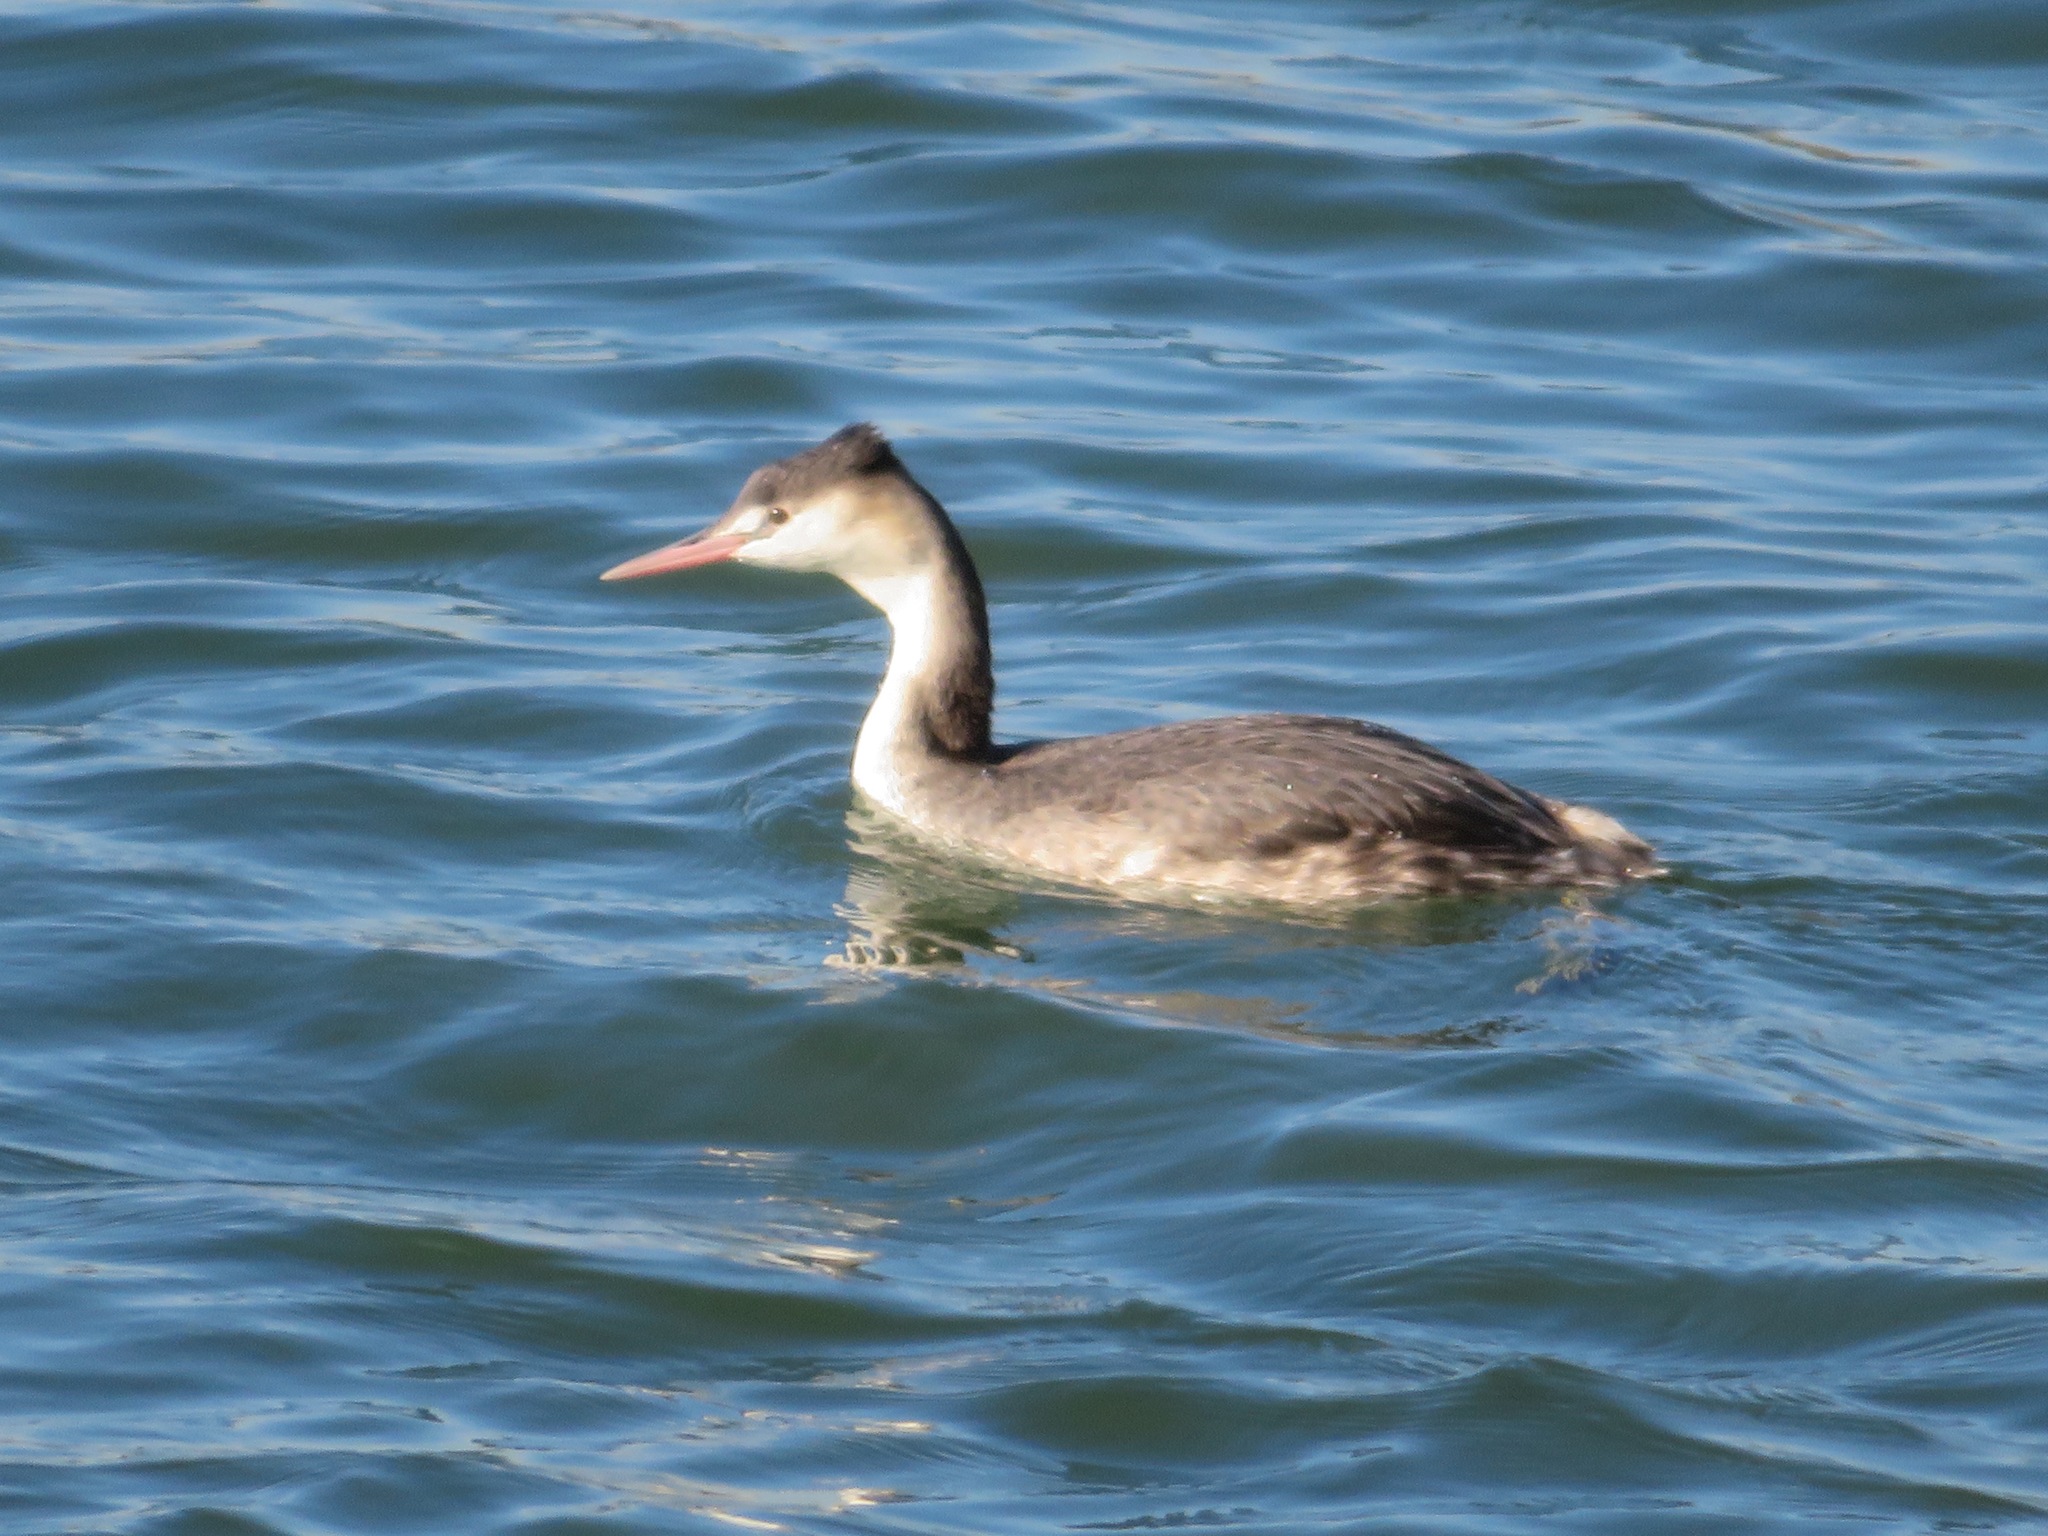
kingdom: Animalia
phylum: Chordata
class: Aves
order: Podicipediformes
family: Podicipedidae
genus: Podiceps
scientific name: Podiceps cristatus
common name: Great crested grebe
